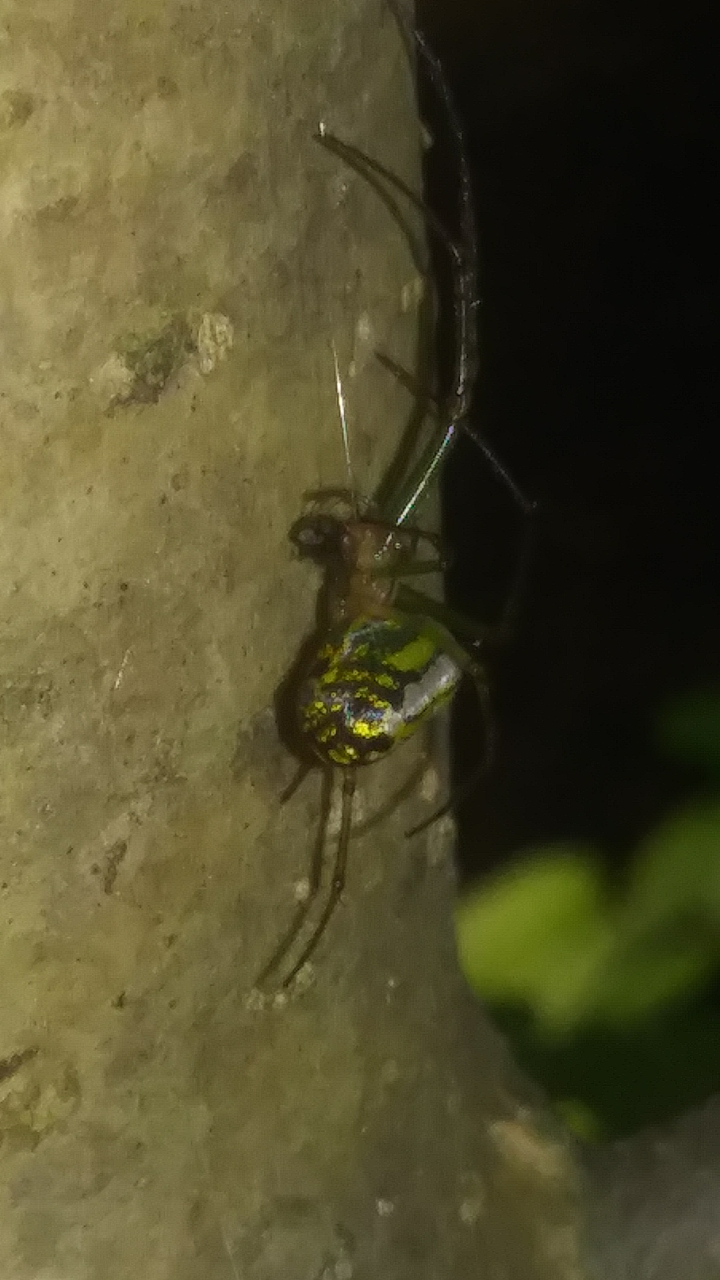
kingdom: Animalia
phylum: Arthropoda
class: Arachnida
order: Araneae
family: Tetragnathidae
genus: Leucauge
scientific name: Leucauge venusta
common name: Longjawed orb weavers
